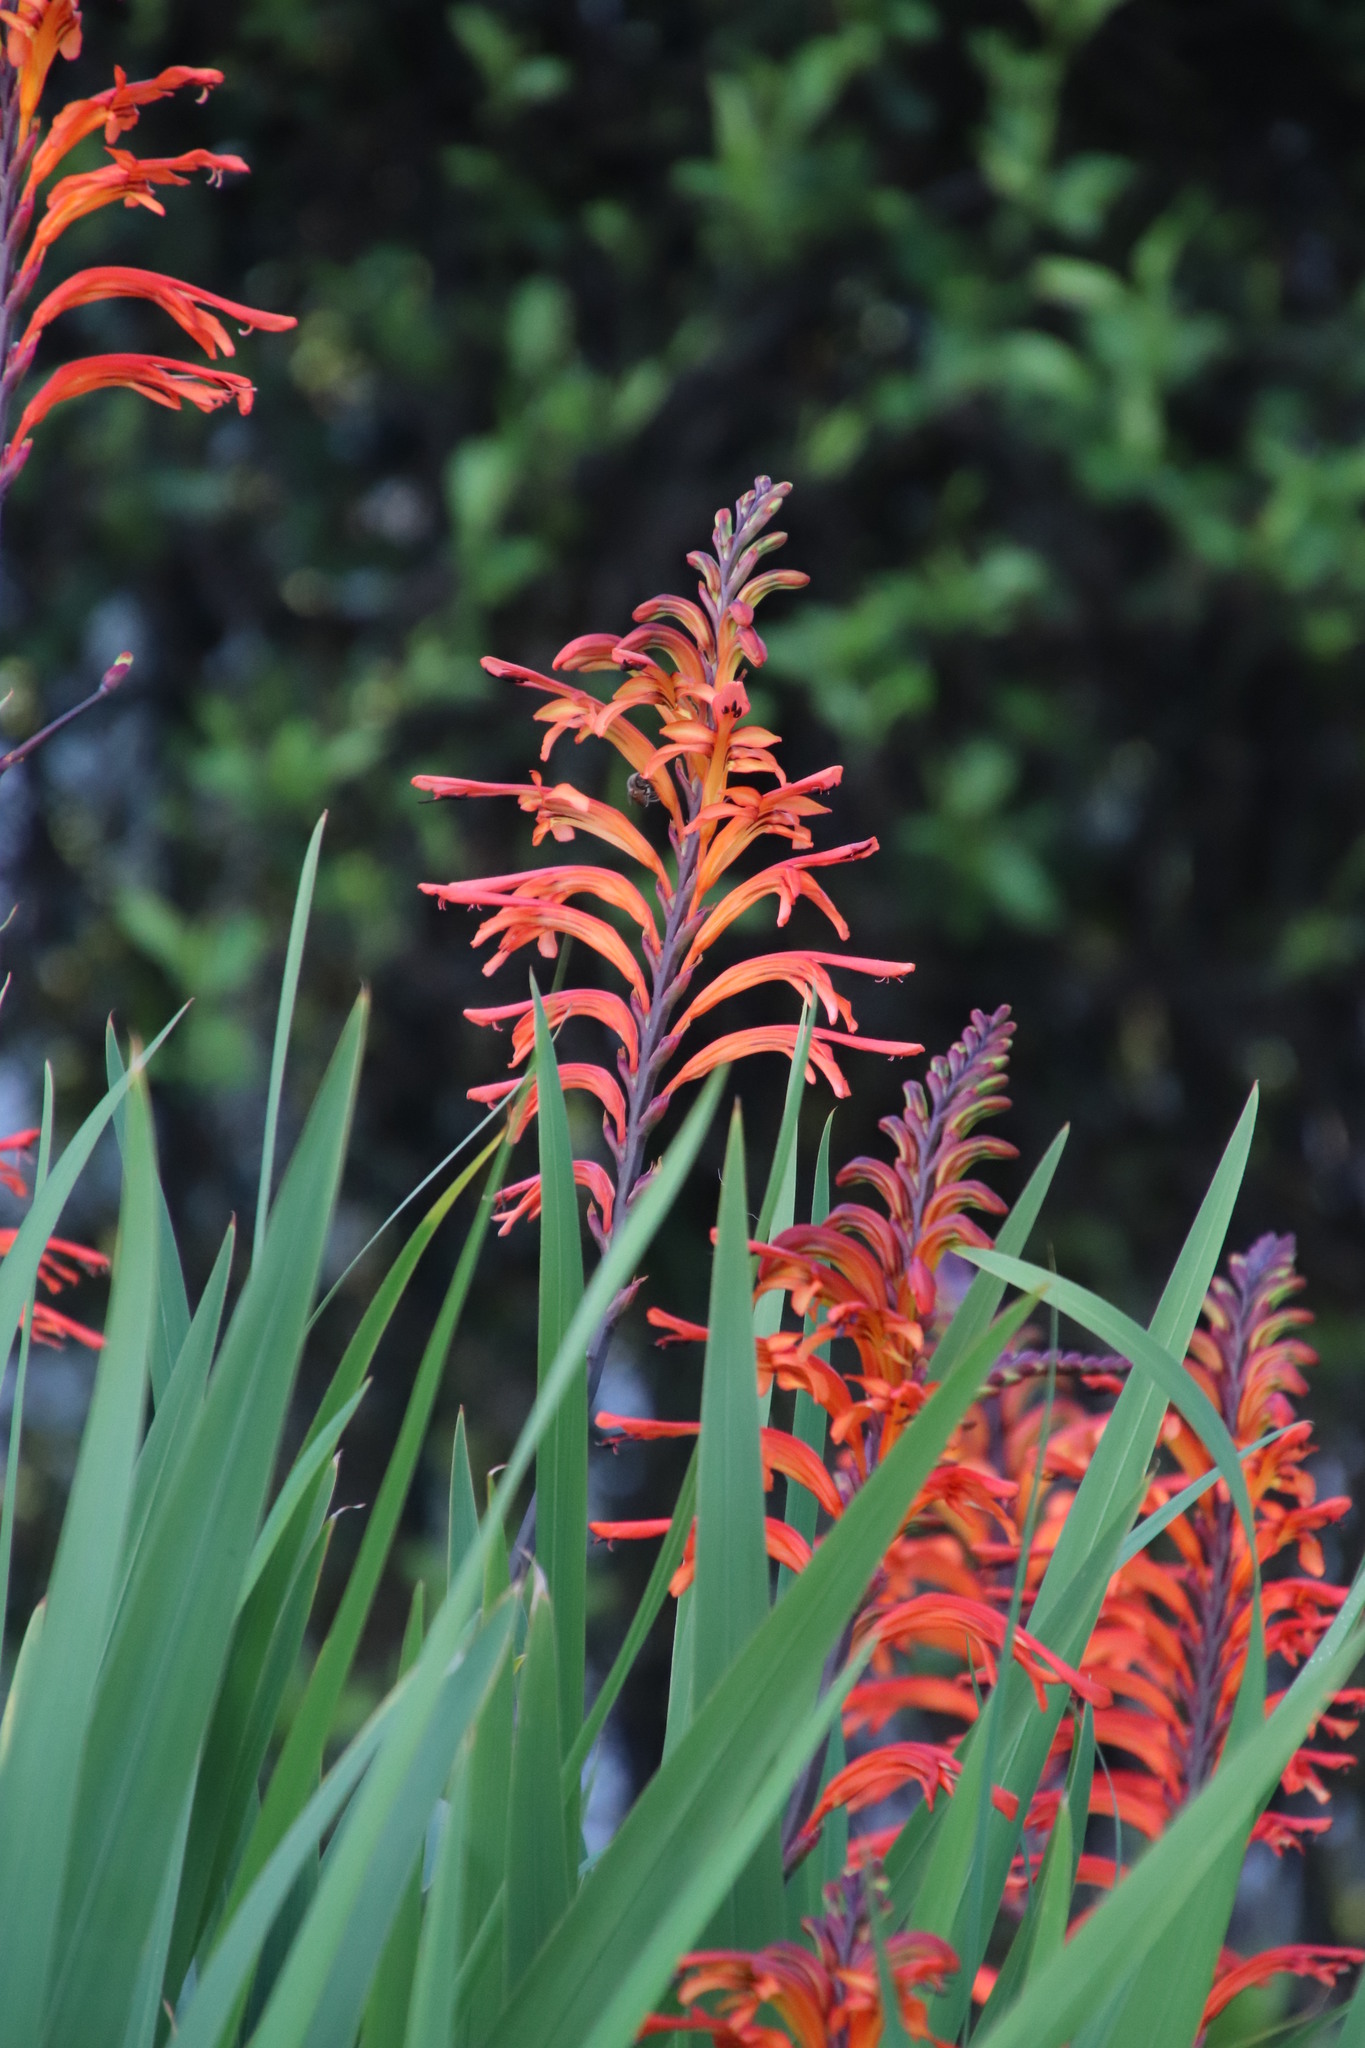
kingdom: Plantae
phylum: Tracheophyta
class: Liliopsida
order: Asparagales
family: Iridaceae
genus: Chasmanthe
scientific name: Chasmanthe floribunda
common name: African cornflag
